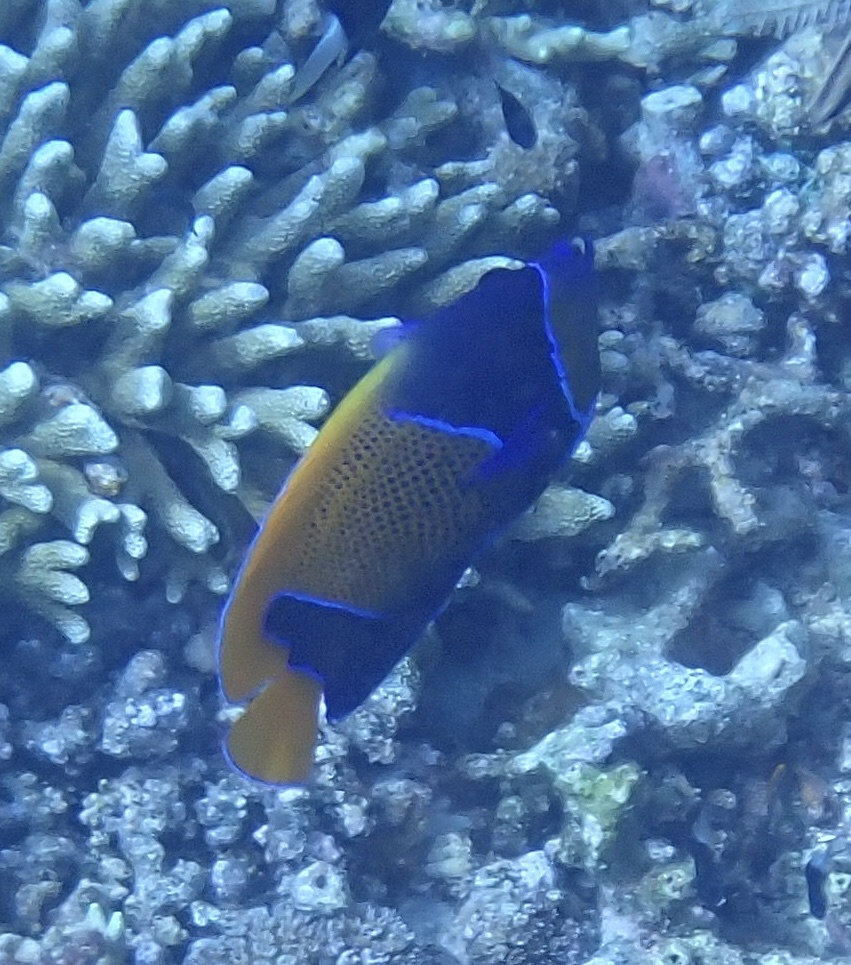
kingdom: Animalia
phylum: Chordata
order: Perciformes
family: Pomacanthidae
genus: Pomacanthus
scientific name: Pomacanthus navarchus
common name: Blue-girdled angelfish
